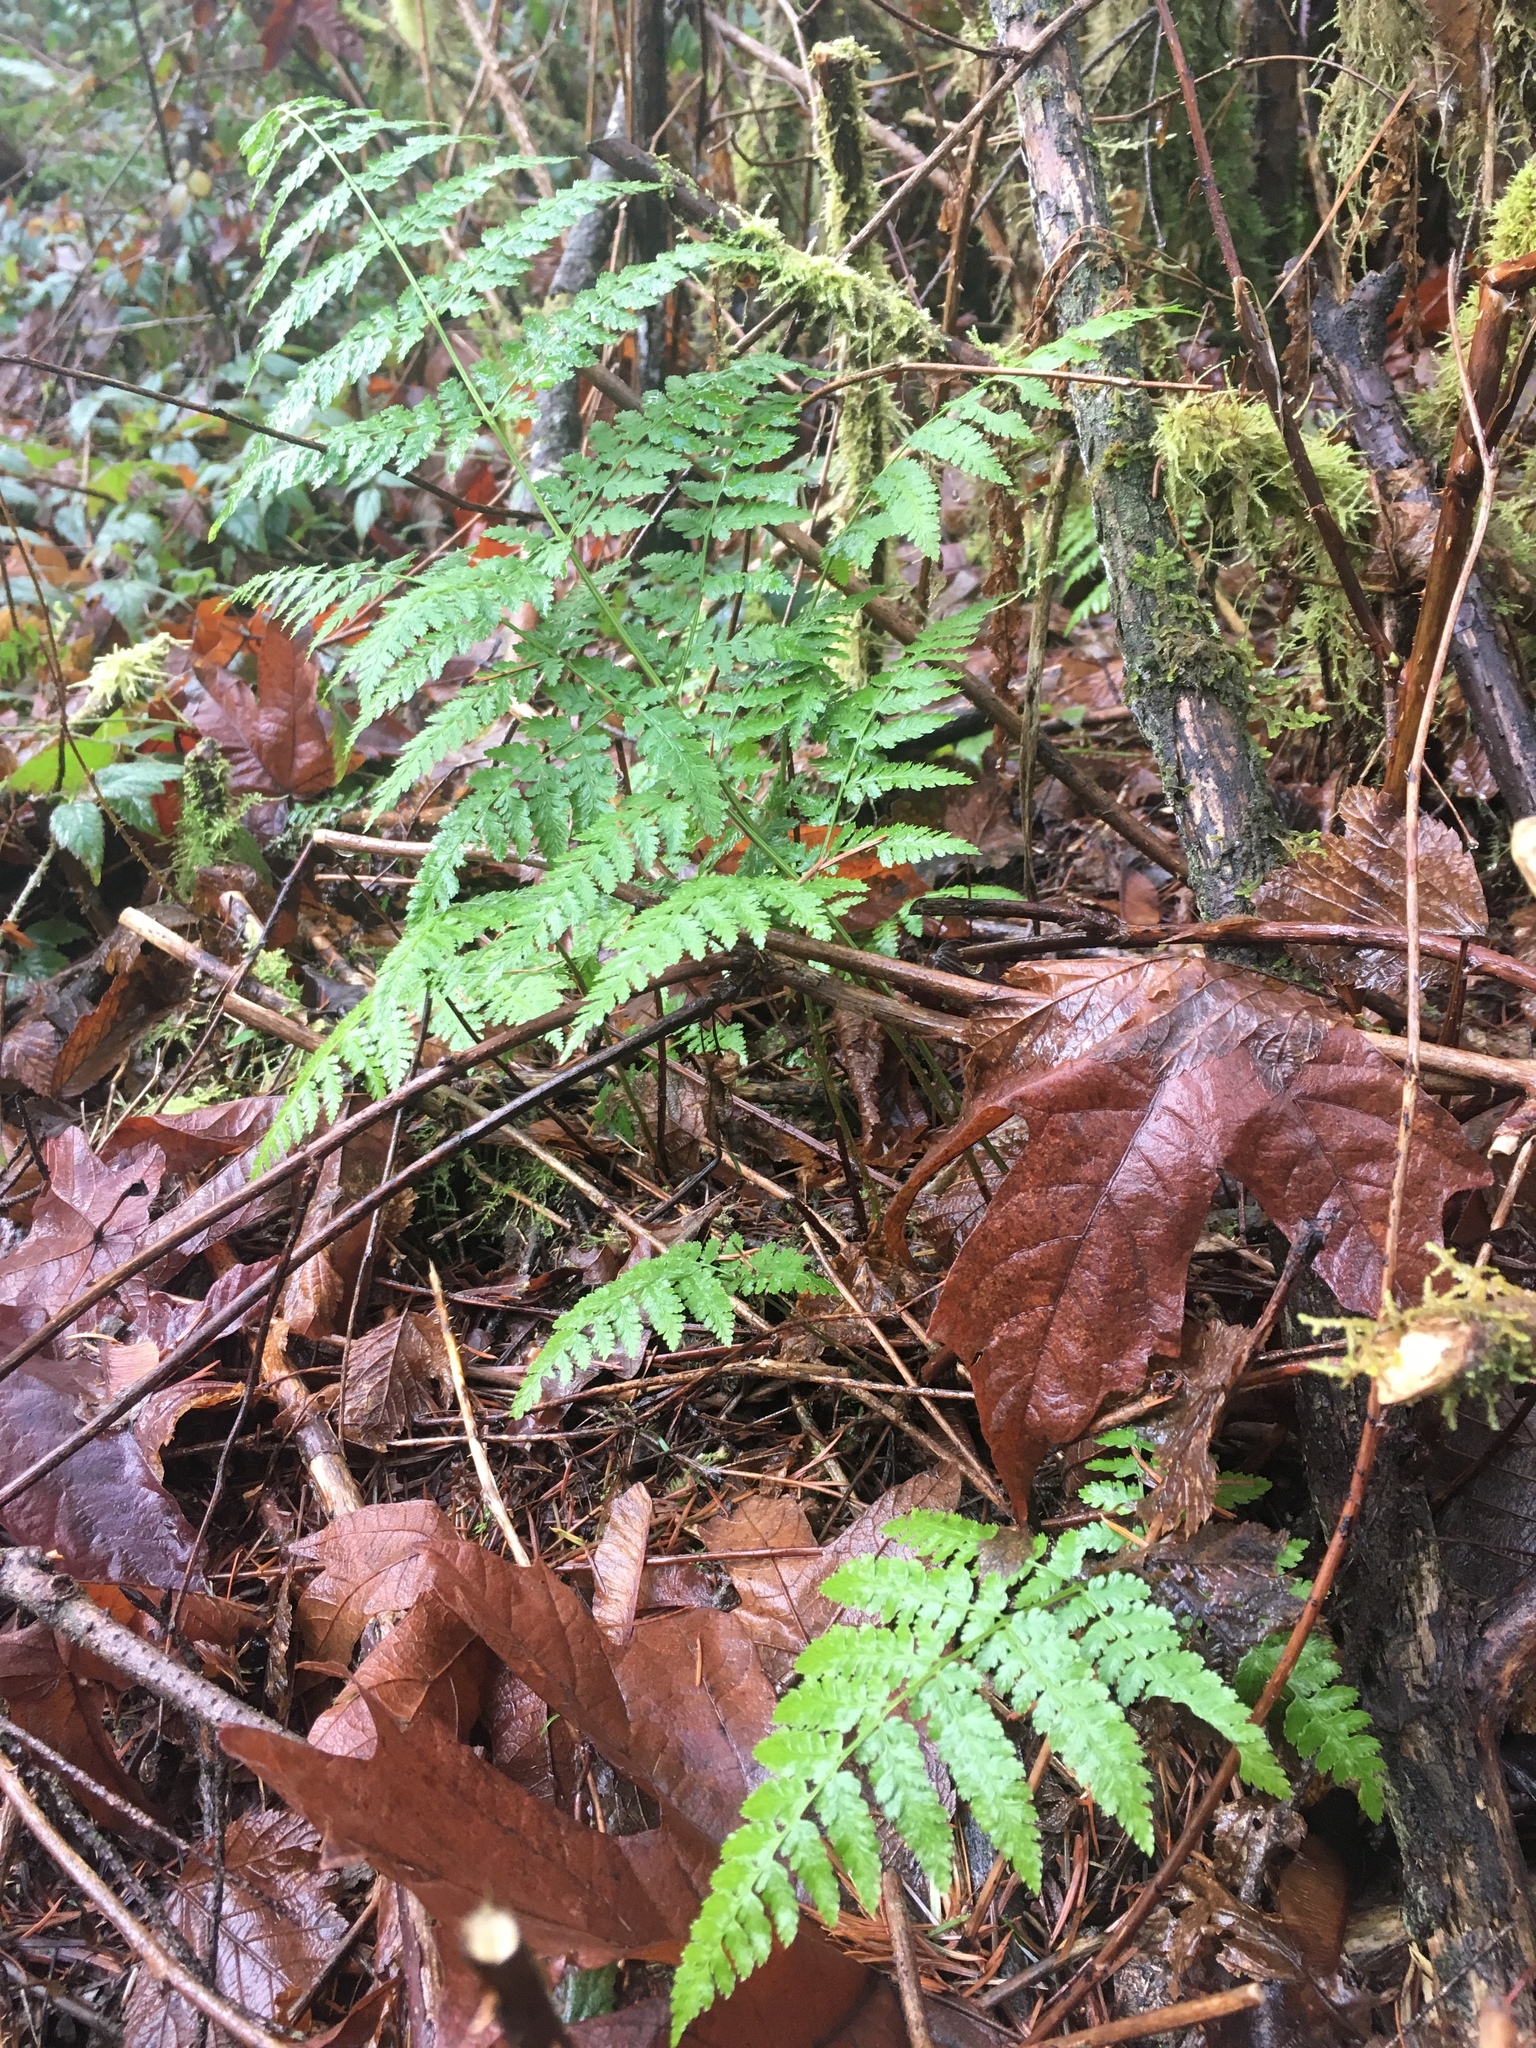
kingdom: Plantae
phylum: Tracheophyta
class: Polypodiopsida
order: Polypodiales
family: Dryopteridaceae
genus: Dryopteris
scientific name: Dryopteris expansa
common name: Northern buckler fern
